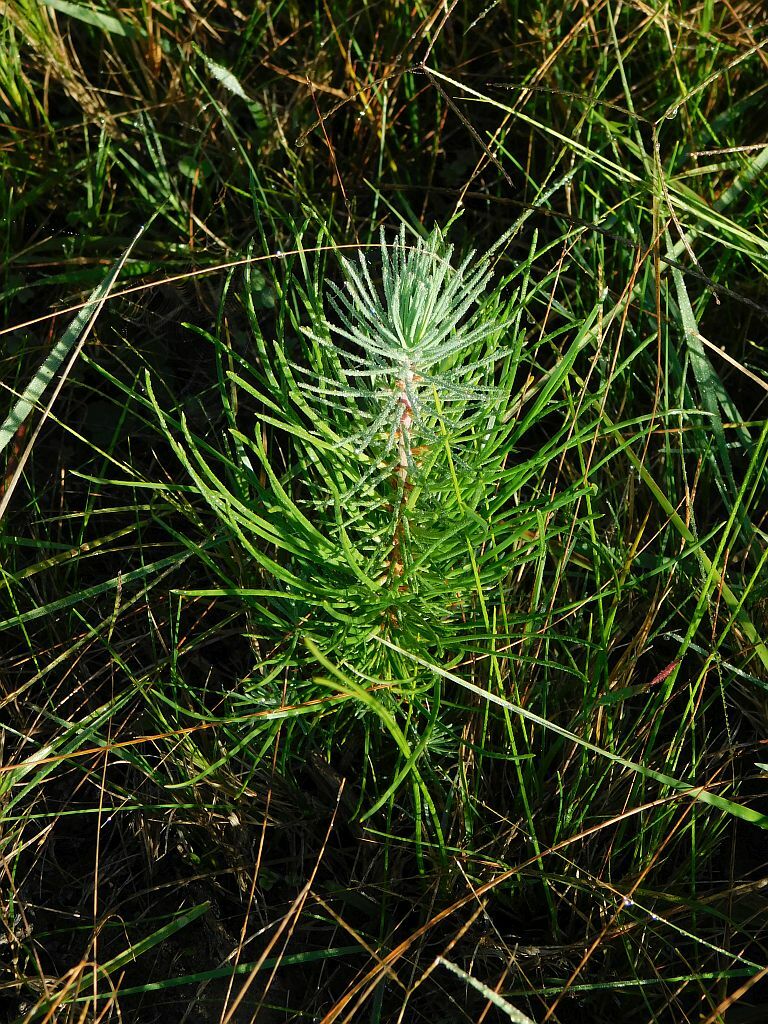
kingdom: Plantae
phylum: Tracheophyta
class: Pinopsida
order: Pinales
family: Pinaceae
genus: Pinus
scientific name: Pinus pinaster
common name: Maritime pine
